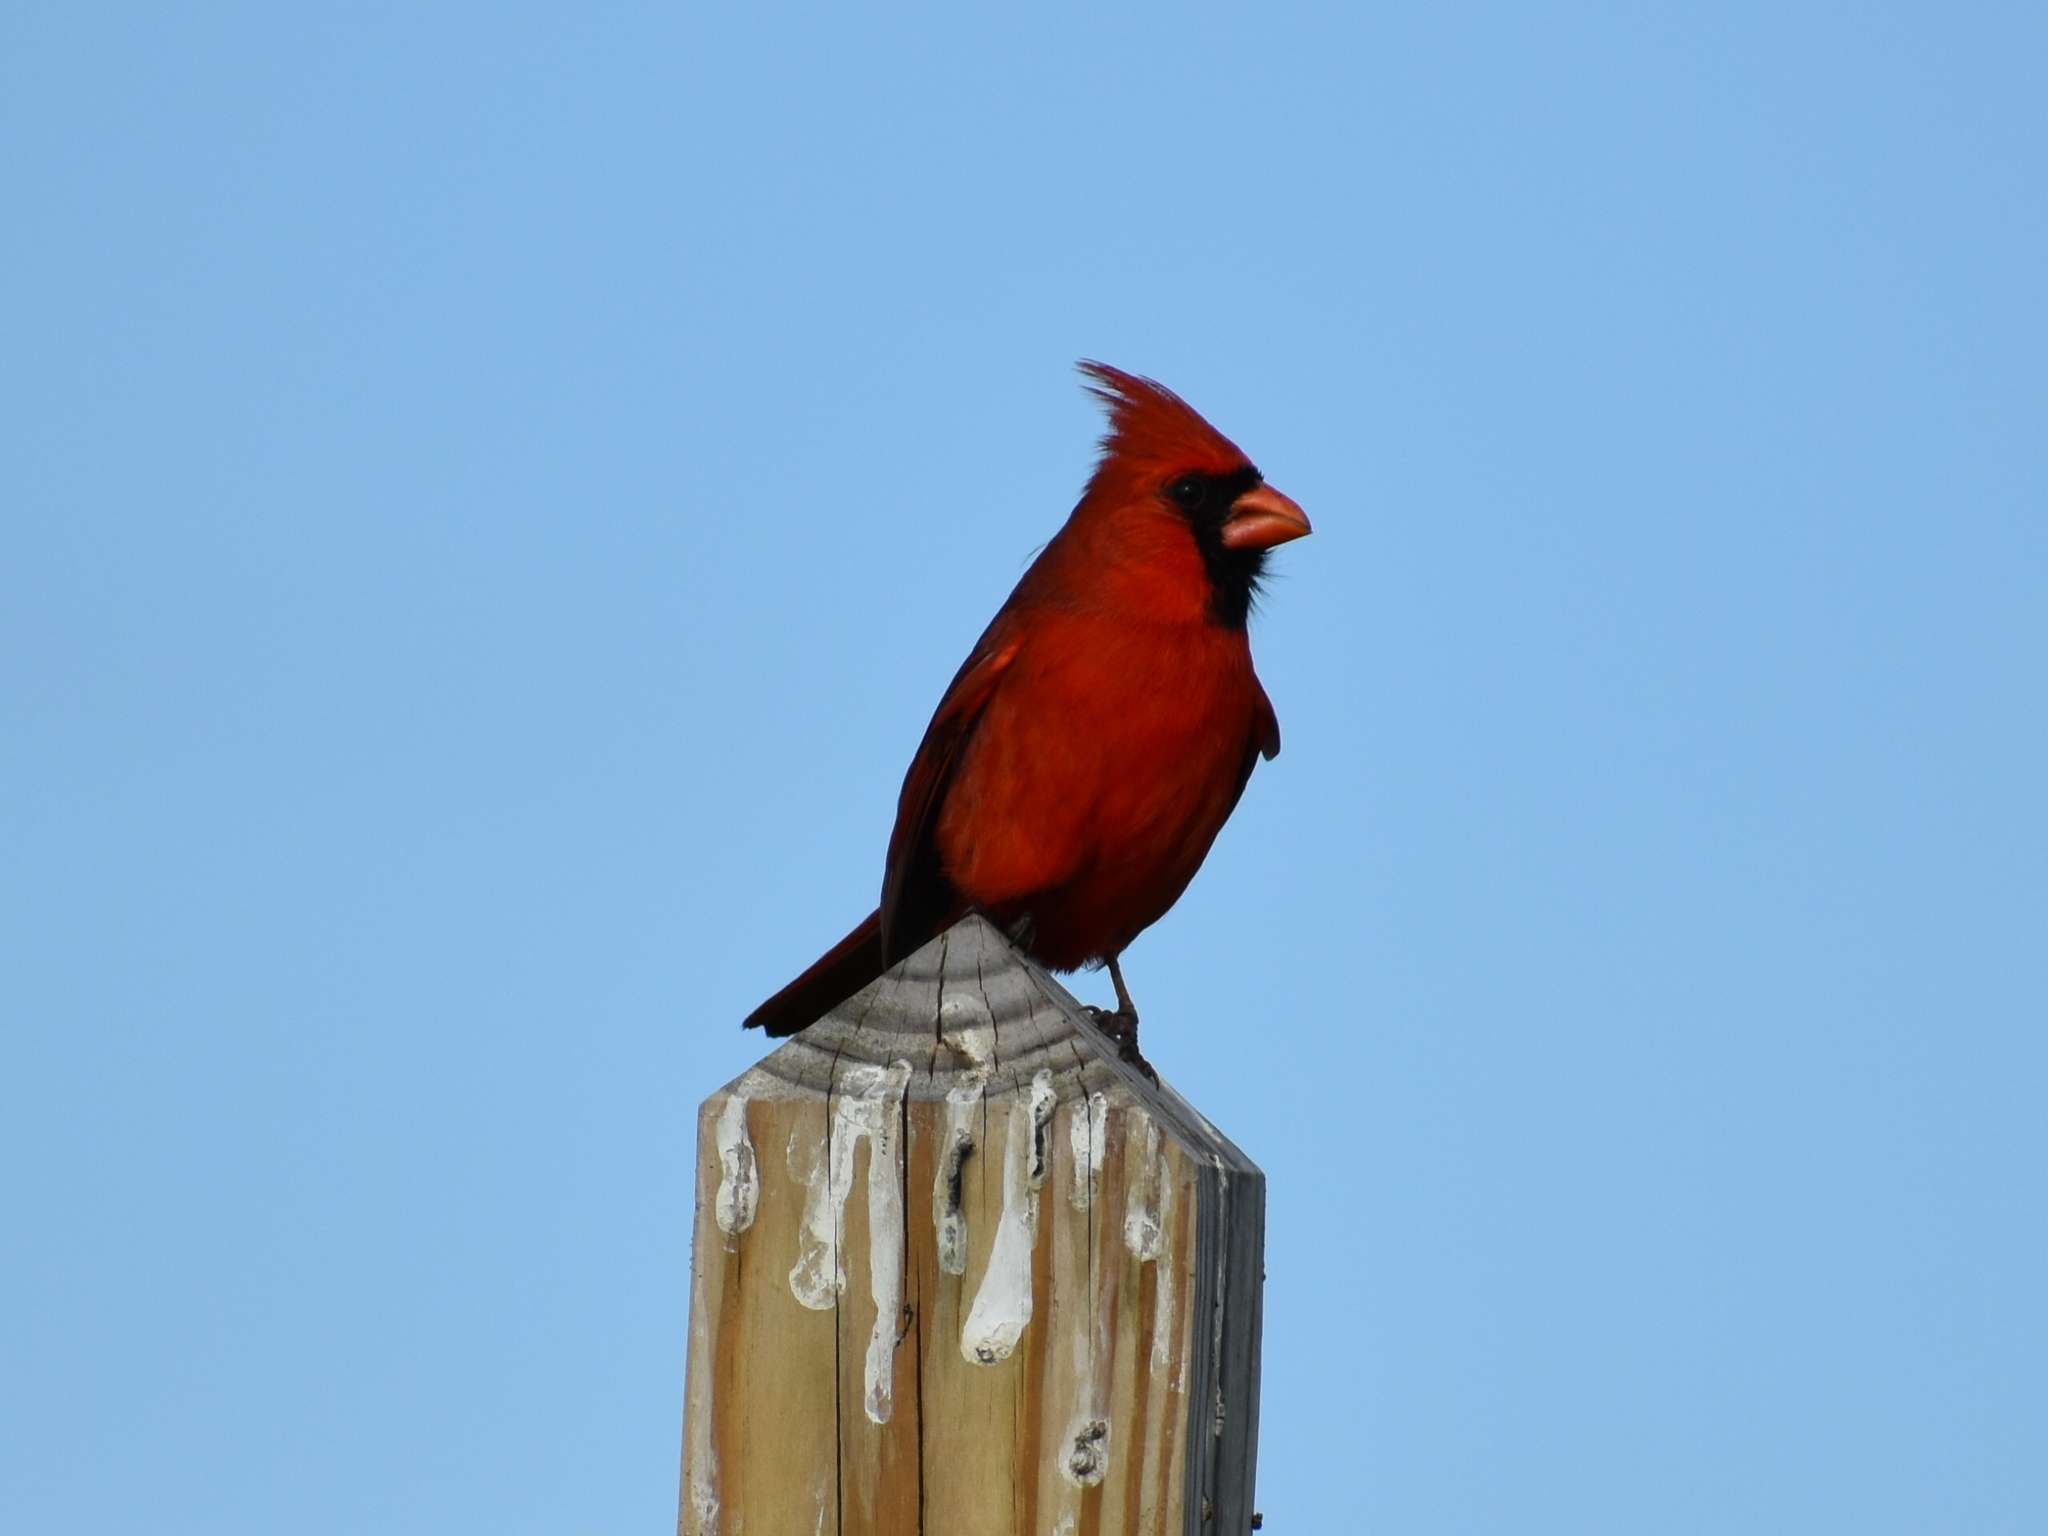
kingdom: Animalia
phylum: Chordata
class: Aves
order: Passeriformes
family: Cardinalidae
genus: Cardinalis
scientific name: Cardinalis cardinalis
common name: Northern cardinal
